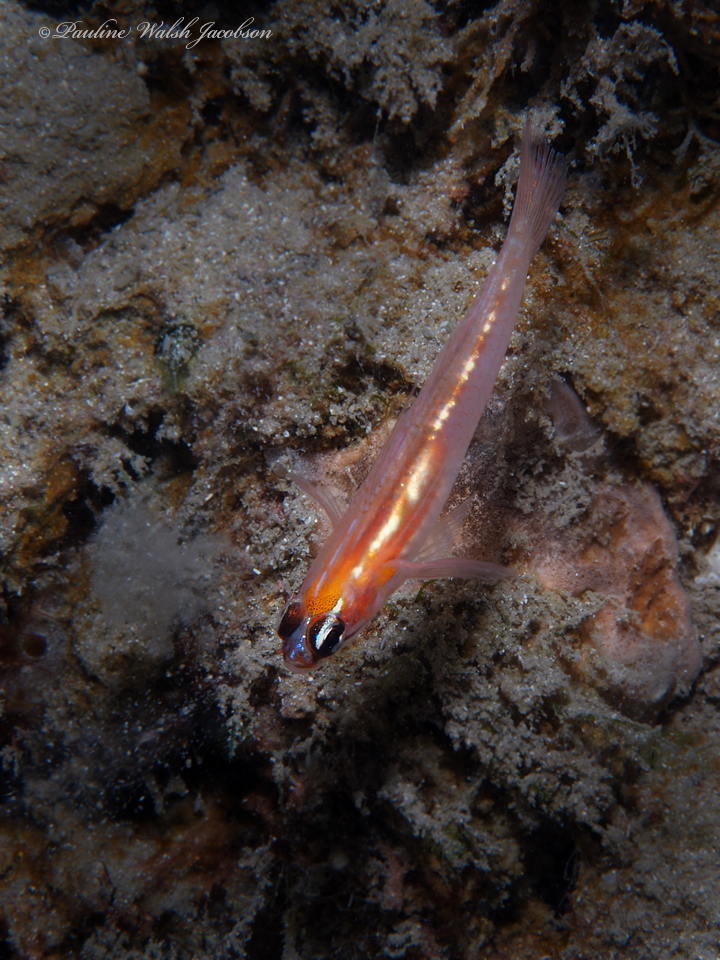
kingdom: Animalia
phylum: Chordata
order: Perciformes
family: Gobiidae
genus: Coryphopterus
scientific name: Coryphopterus personatus
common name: Masked goby
